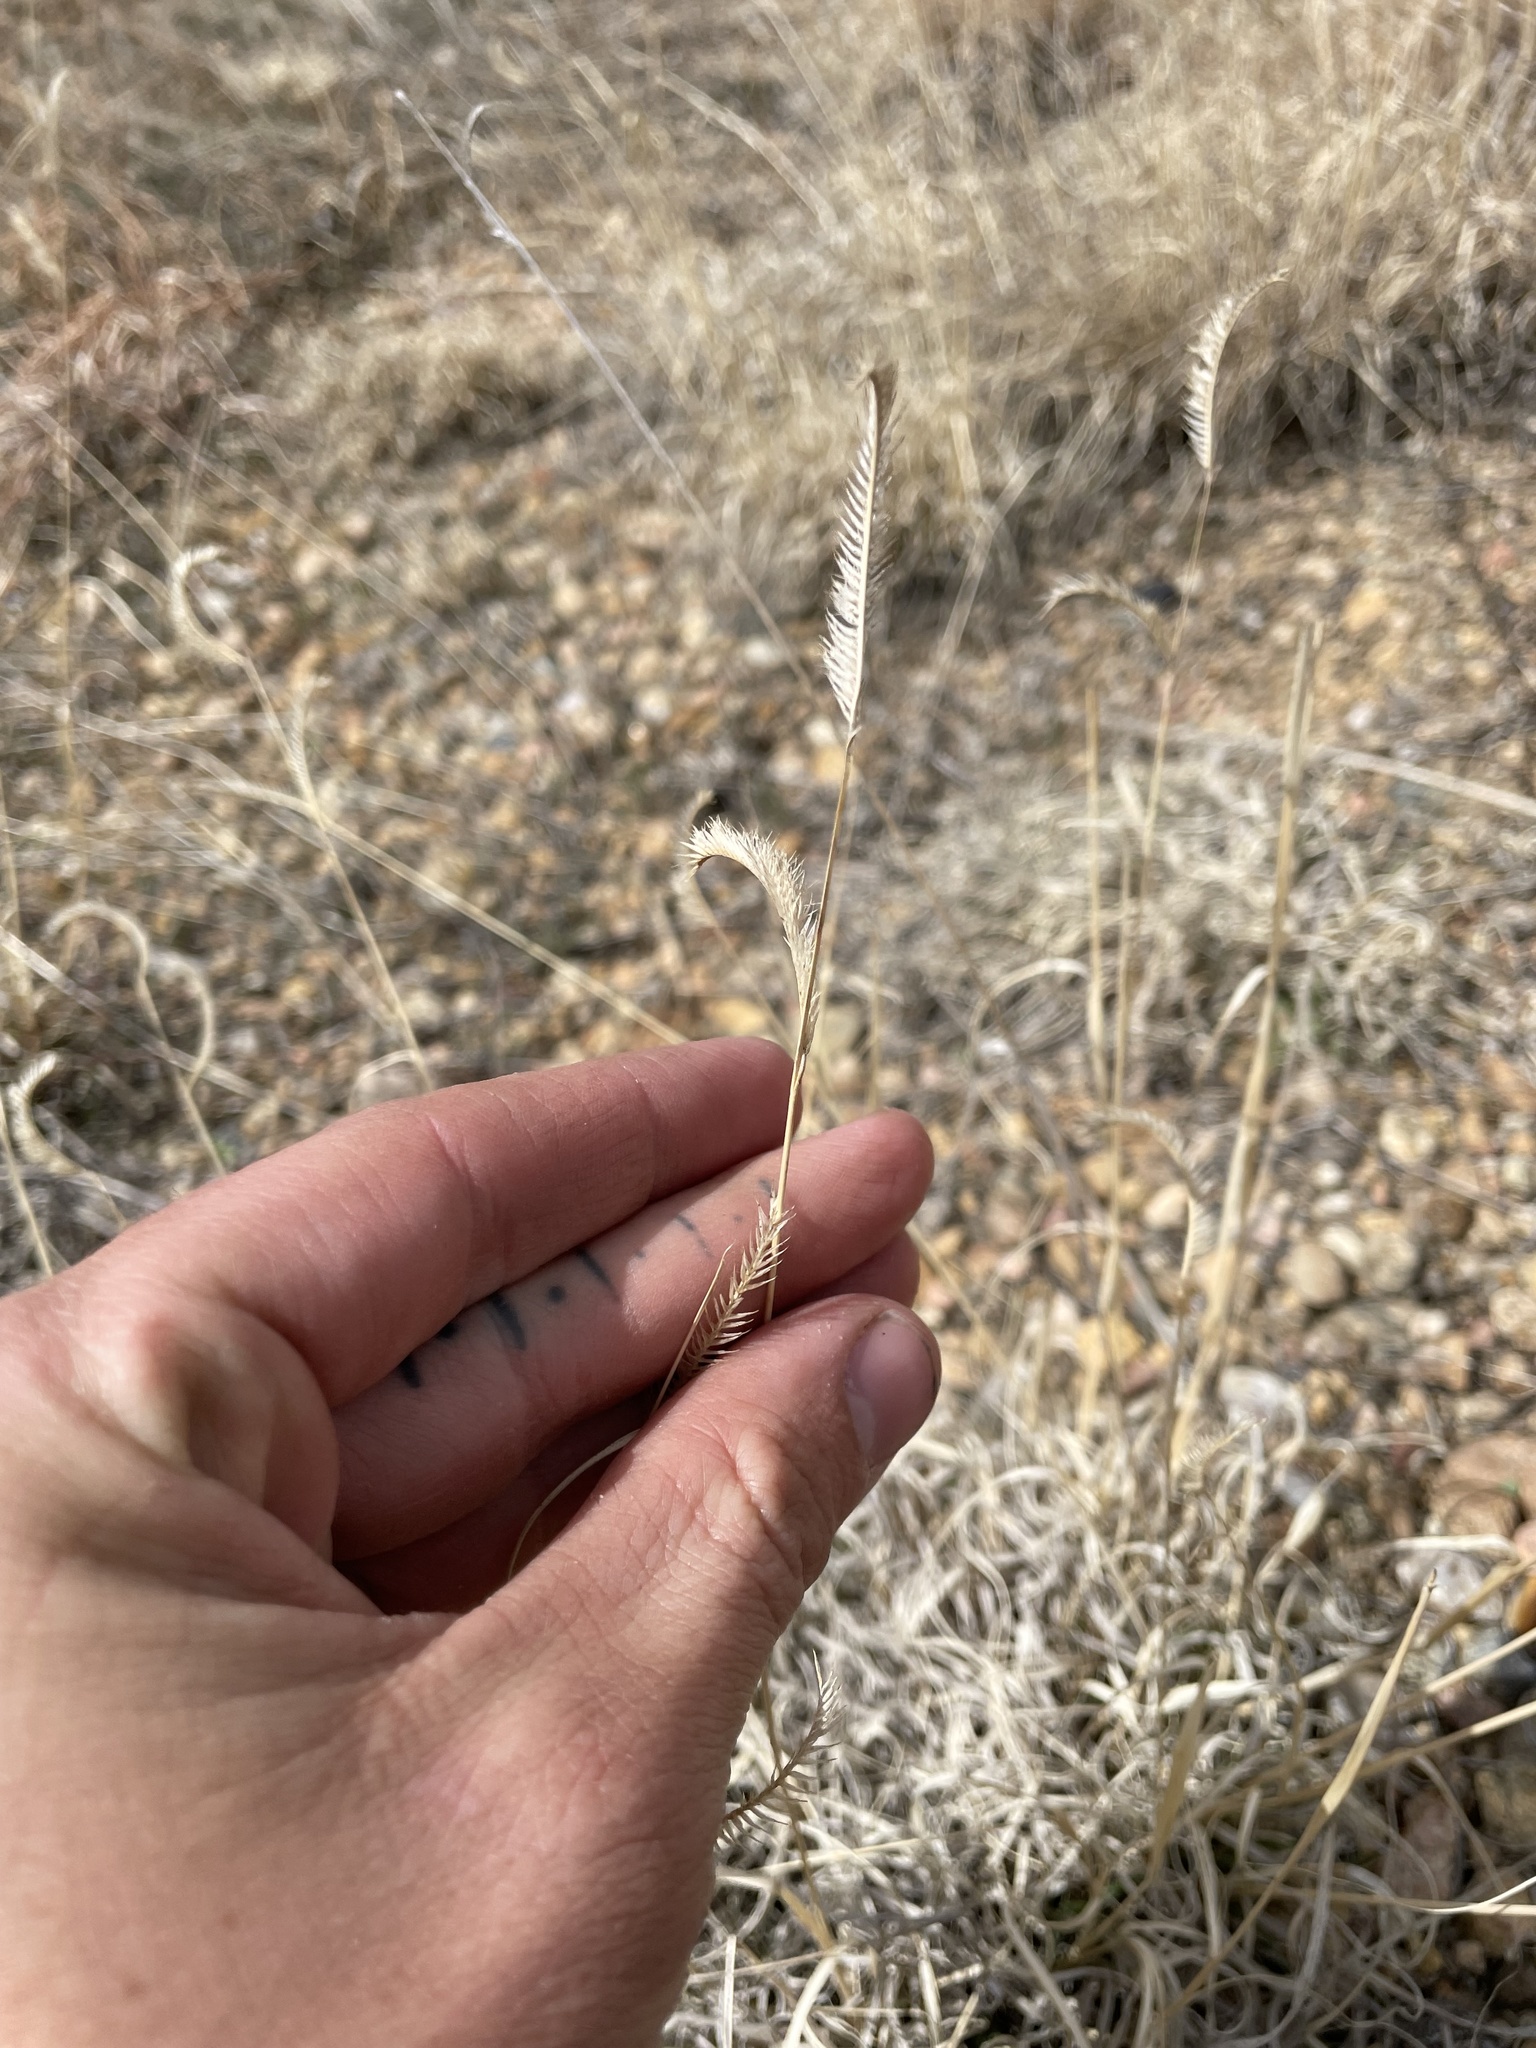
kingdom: Plantae
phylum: Tracheophyta
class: Liliopsida
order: Poales
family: Poaceae
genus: Bouteloua
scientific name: Bouteloua gracilis
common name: Blue grama
